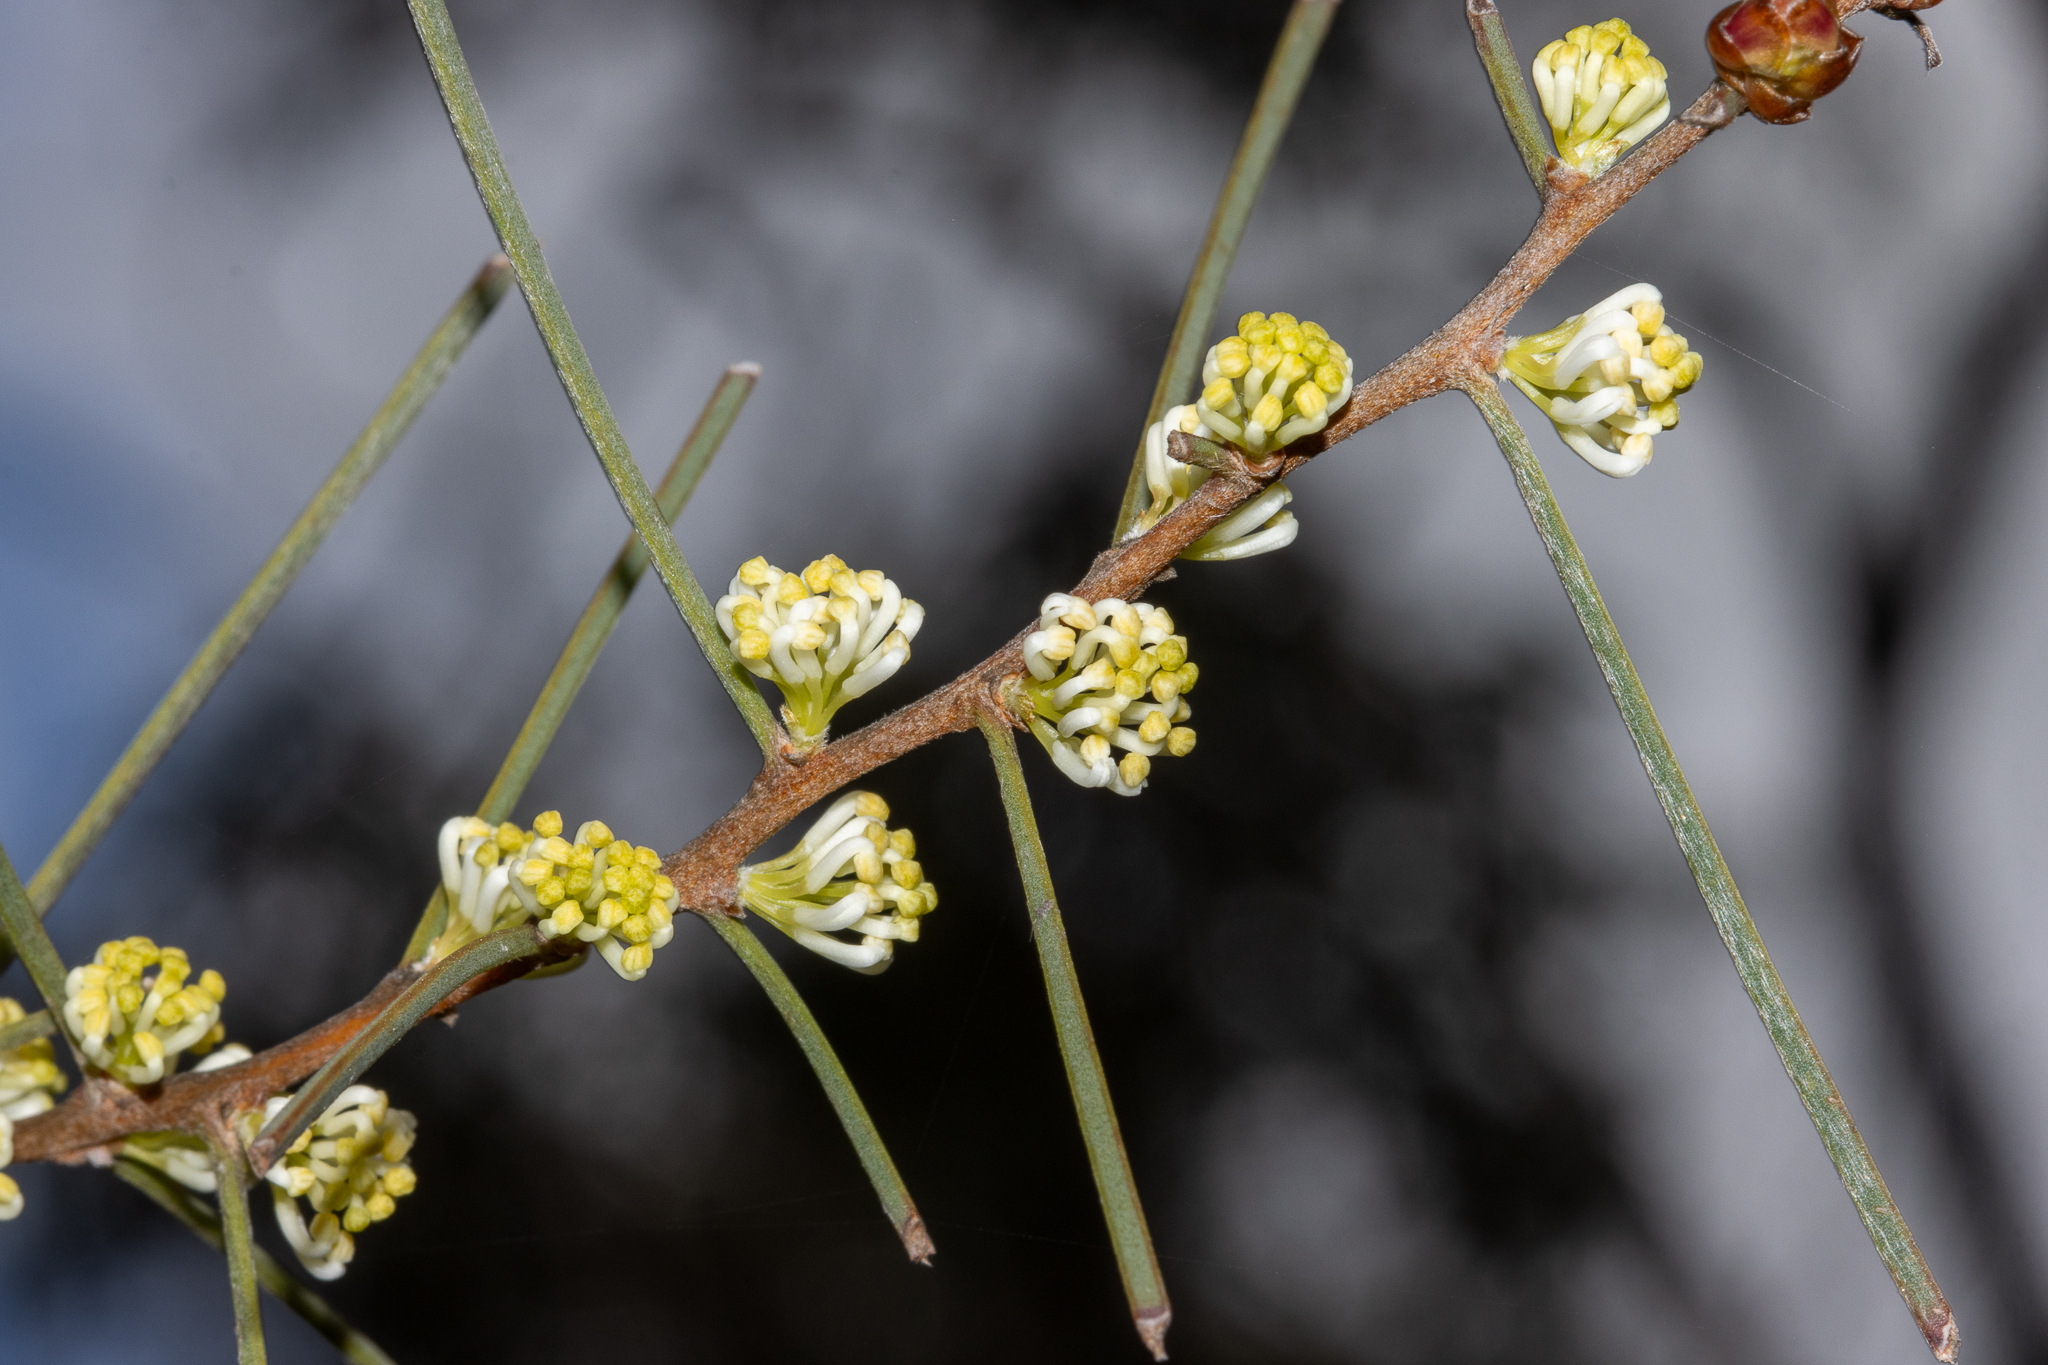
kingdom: Plantae
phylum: Tracheophyta
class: Magnoliopsida
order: Proteales
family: Proteaceae
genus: Hakea
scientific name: Hakea carinata
